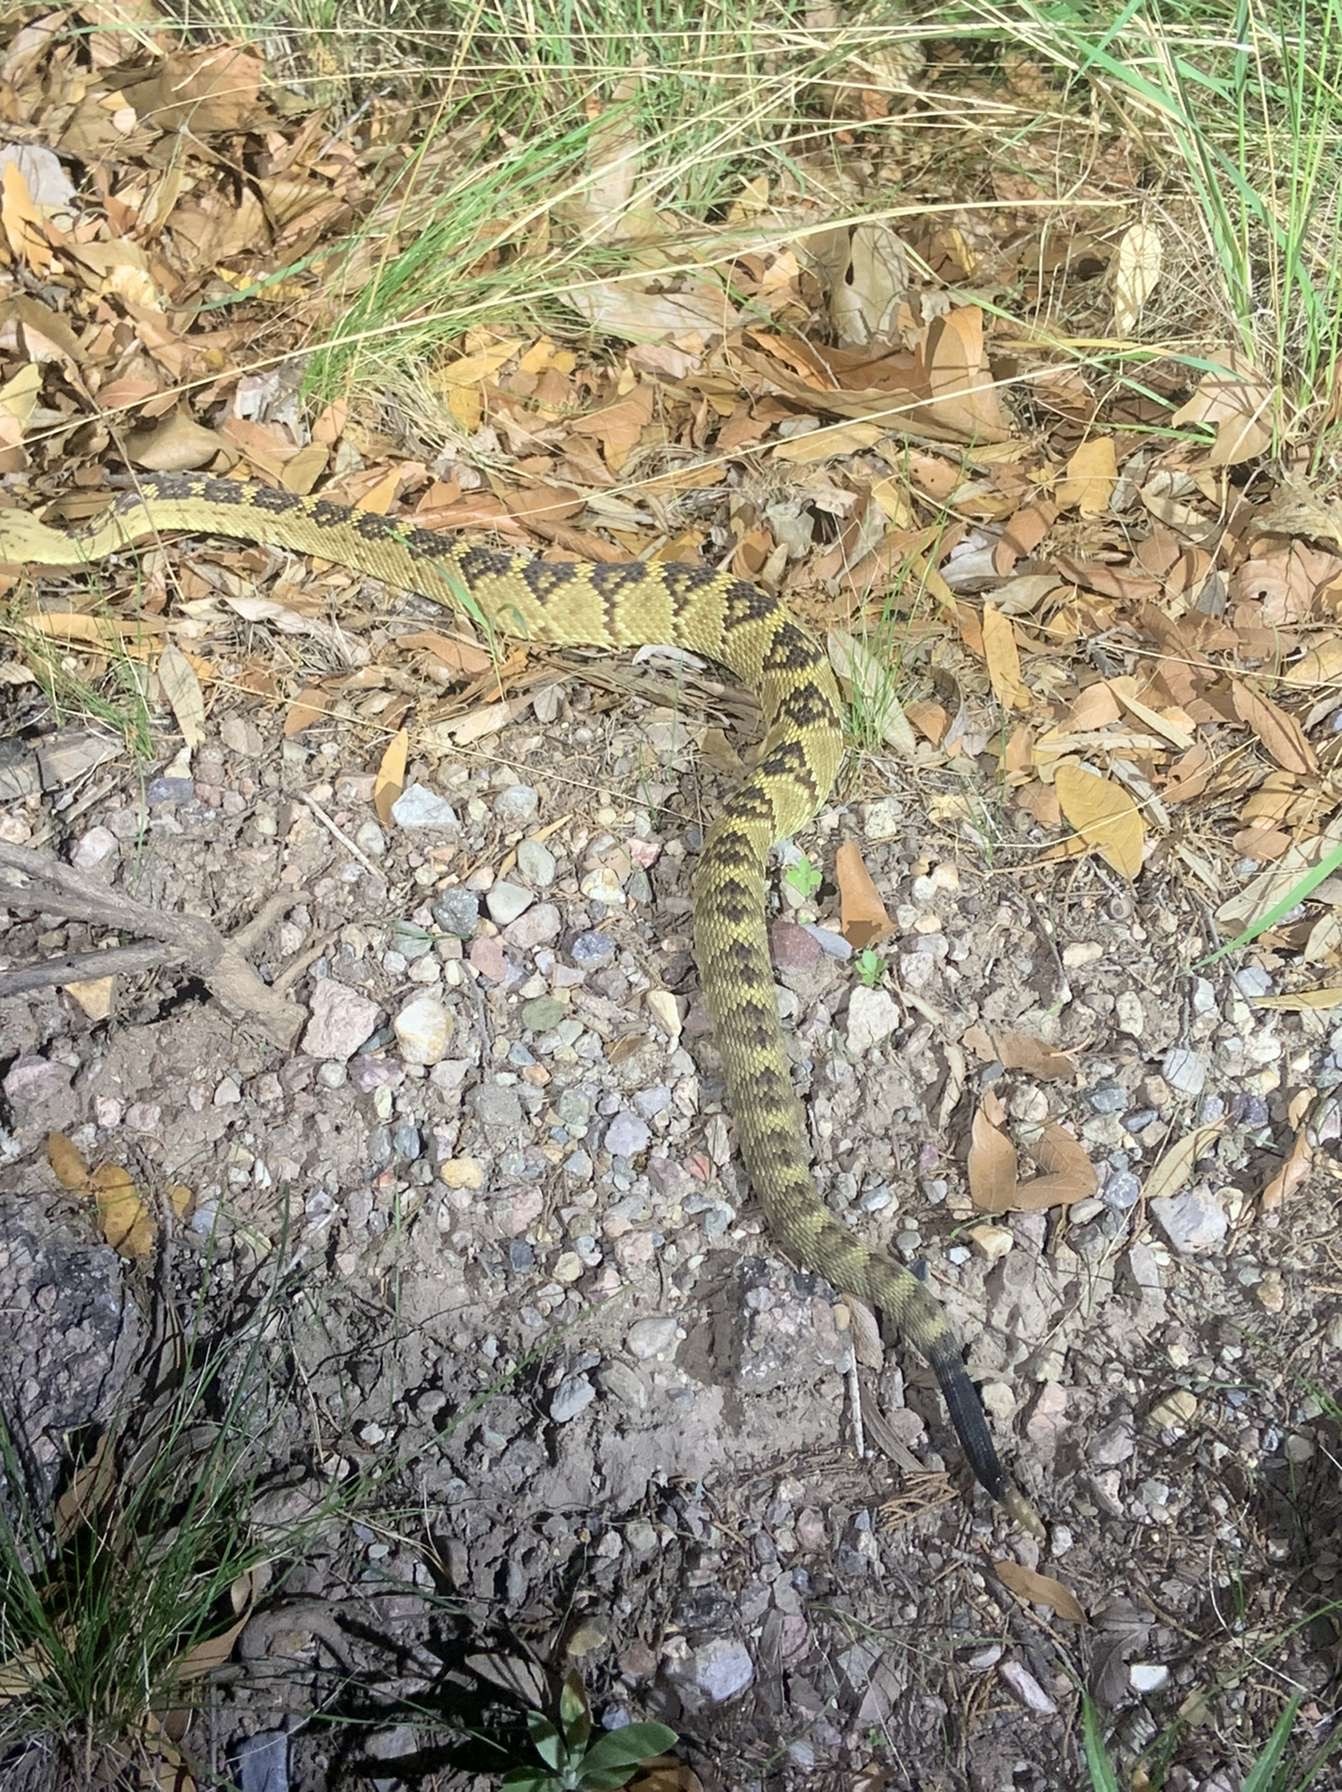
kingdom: Animalia
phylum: Chordata
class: Squamata
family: Viperidae
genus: Crotalus
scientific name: Crotalus molossus
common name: Black tailed rattlesnake
